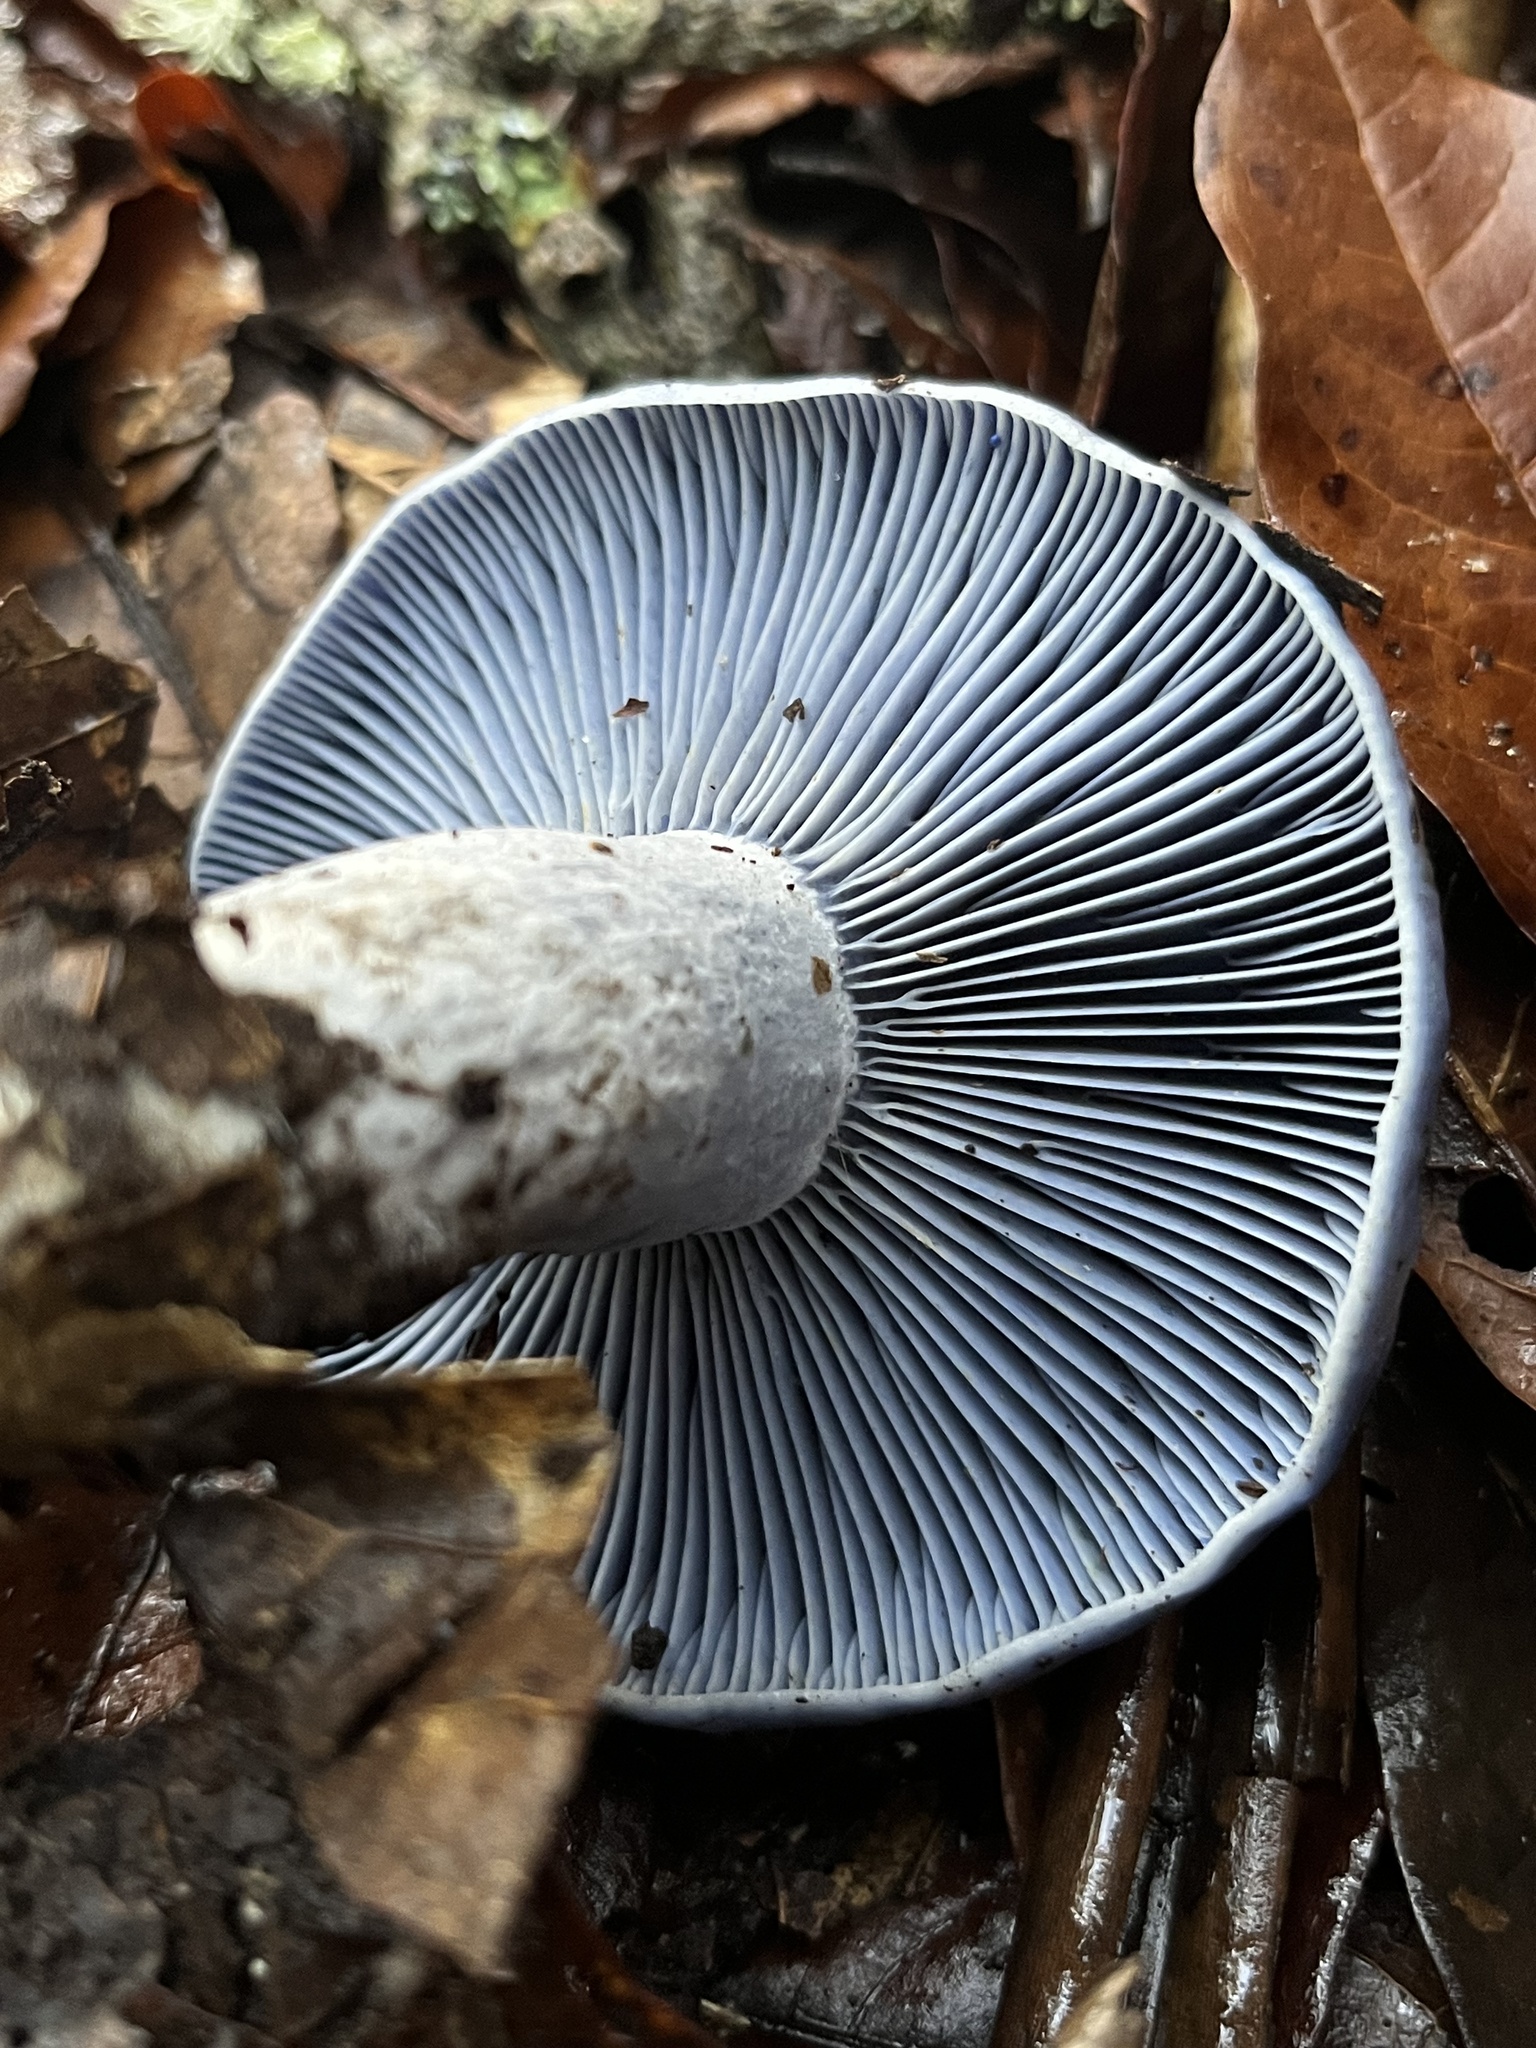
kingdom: Fungi
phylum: Basidiomycota
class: Agaricomycetes
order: Russulales
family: Russulaceae
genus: Lactarius
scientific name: Lactarius indigo
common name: Indigo milk cap
